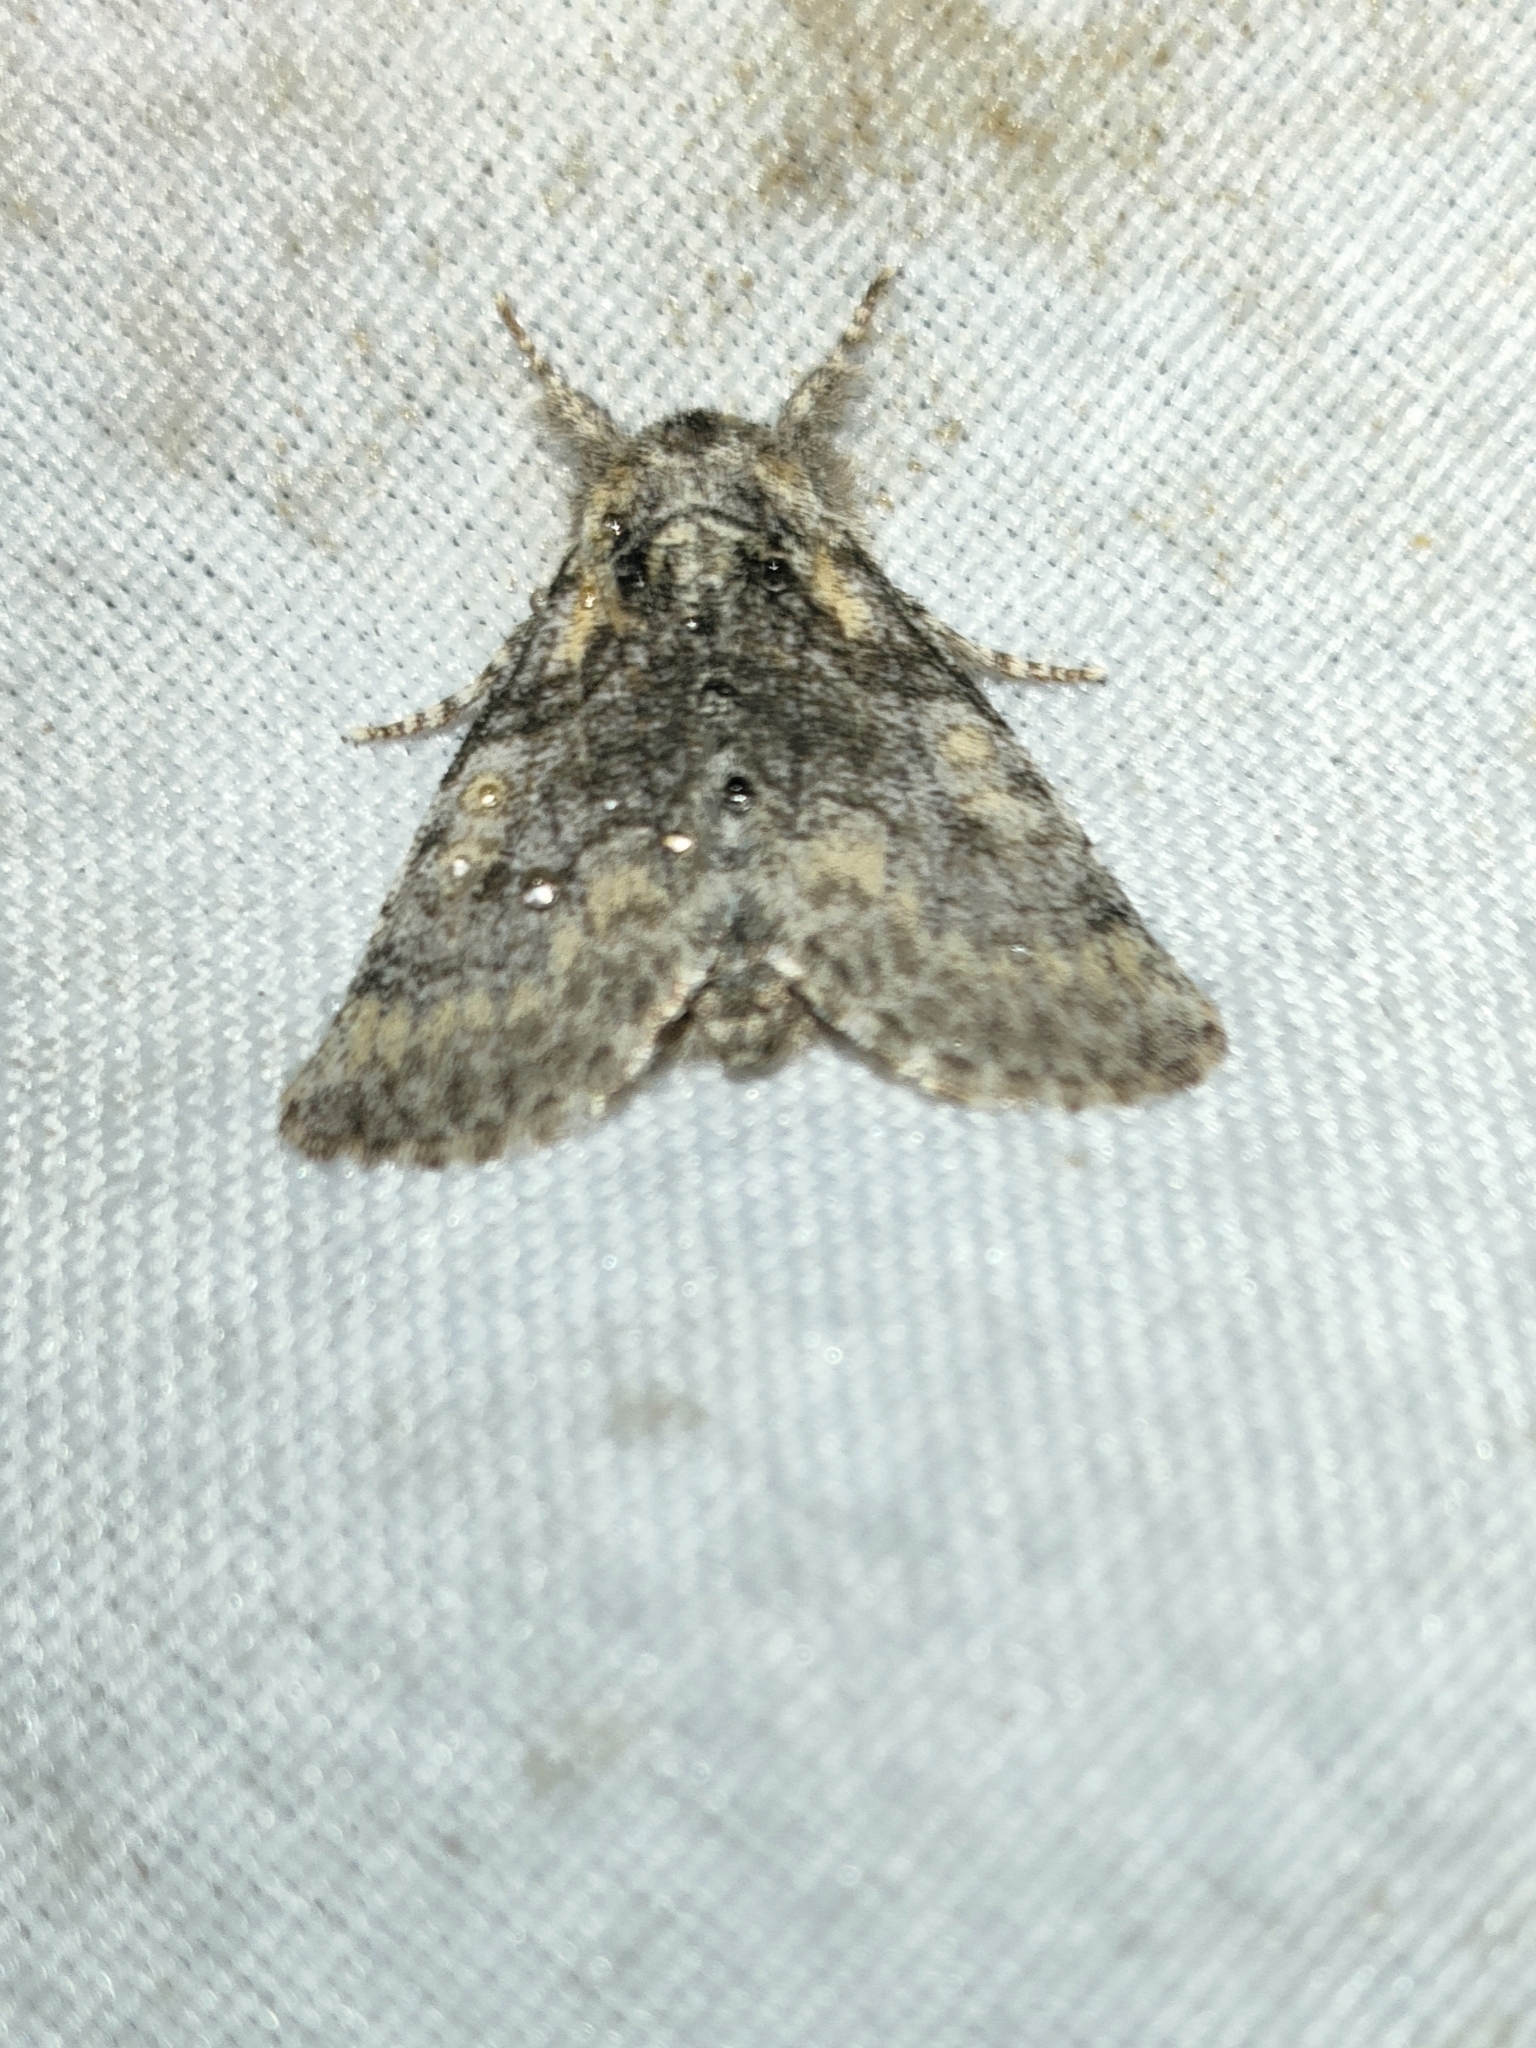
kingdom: Animalia
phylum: Arthropoda
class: Insecta
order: Lepidoptera
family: Noctuidae
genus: Raphia
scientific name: Raphia hybris
